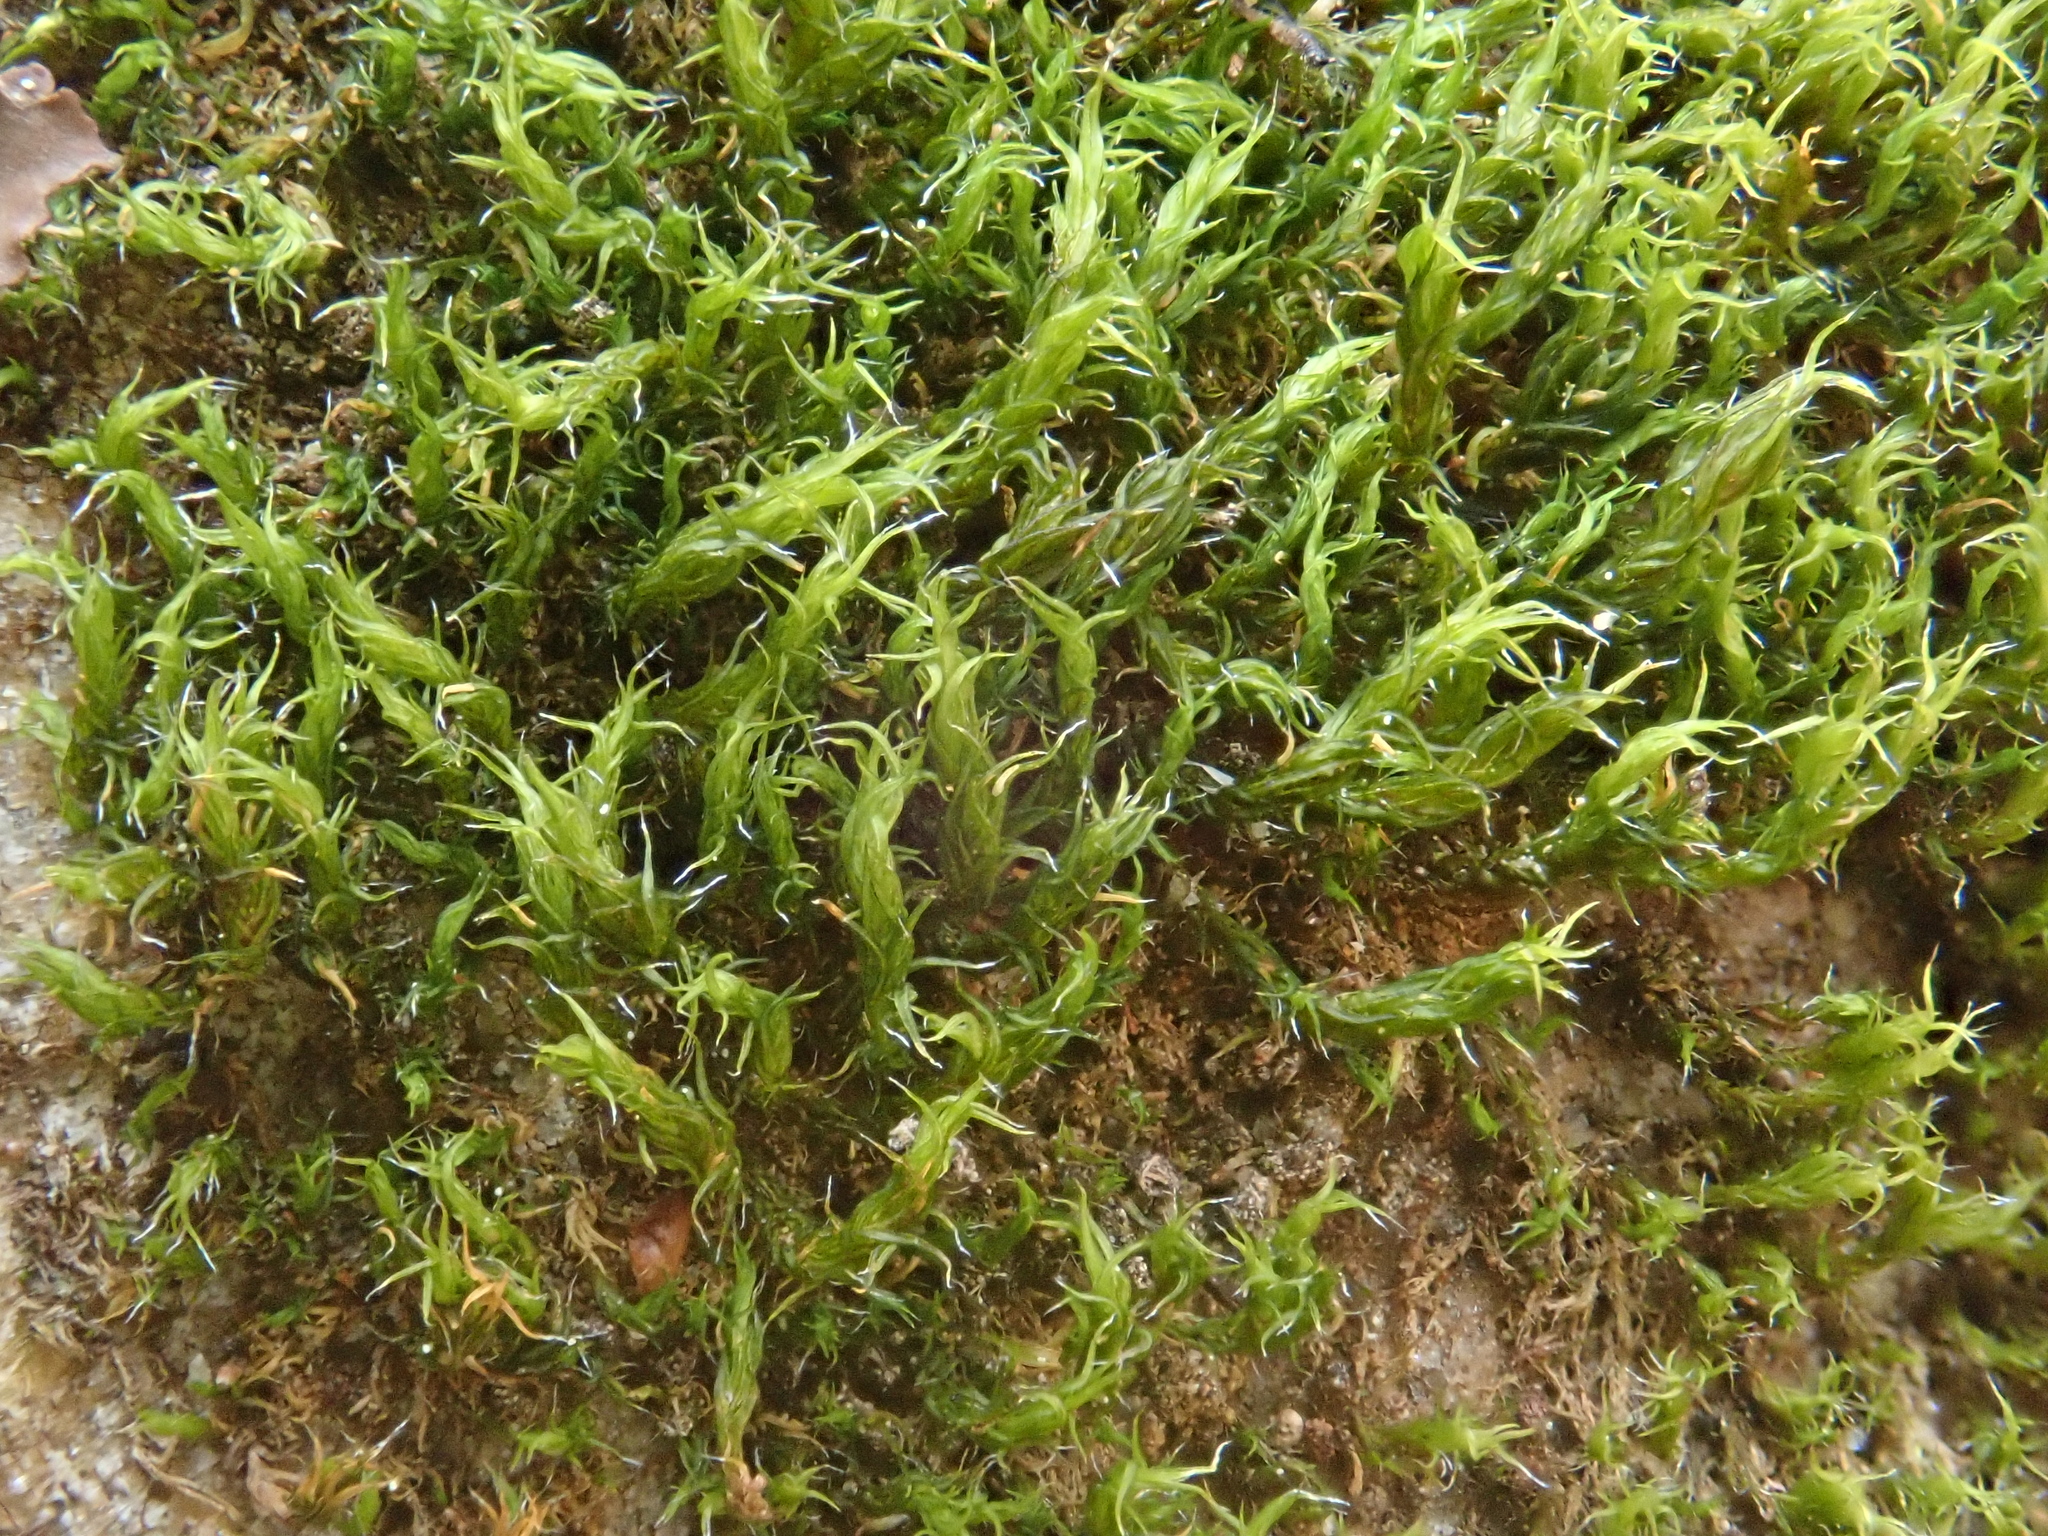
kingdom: Plantae
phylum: Bryophyta
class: Bryopsida
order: Grimmiales
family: Grimmiaceae
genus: Grimmia
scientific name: Grimmia hartmanii
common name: Hartman's grimmia
